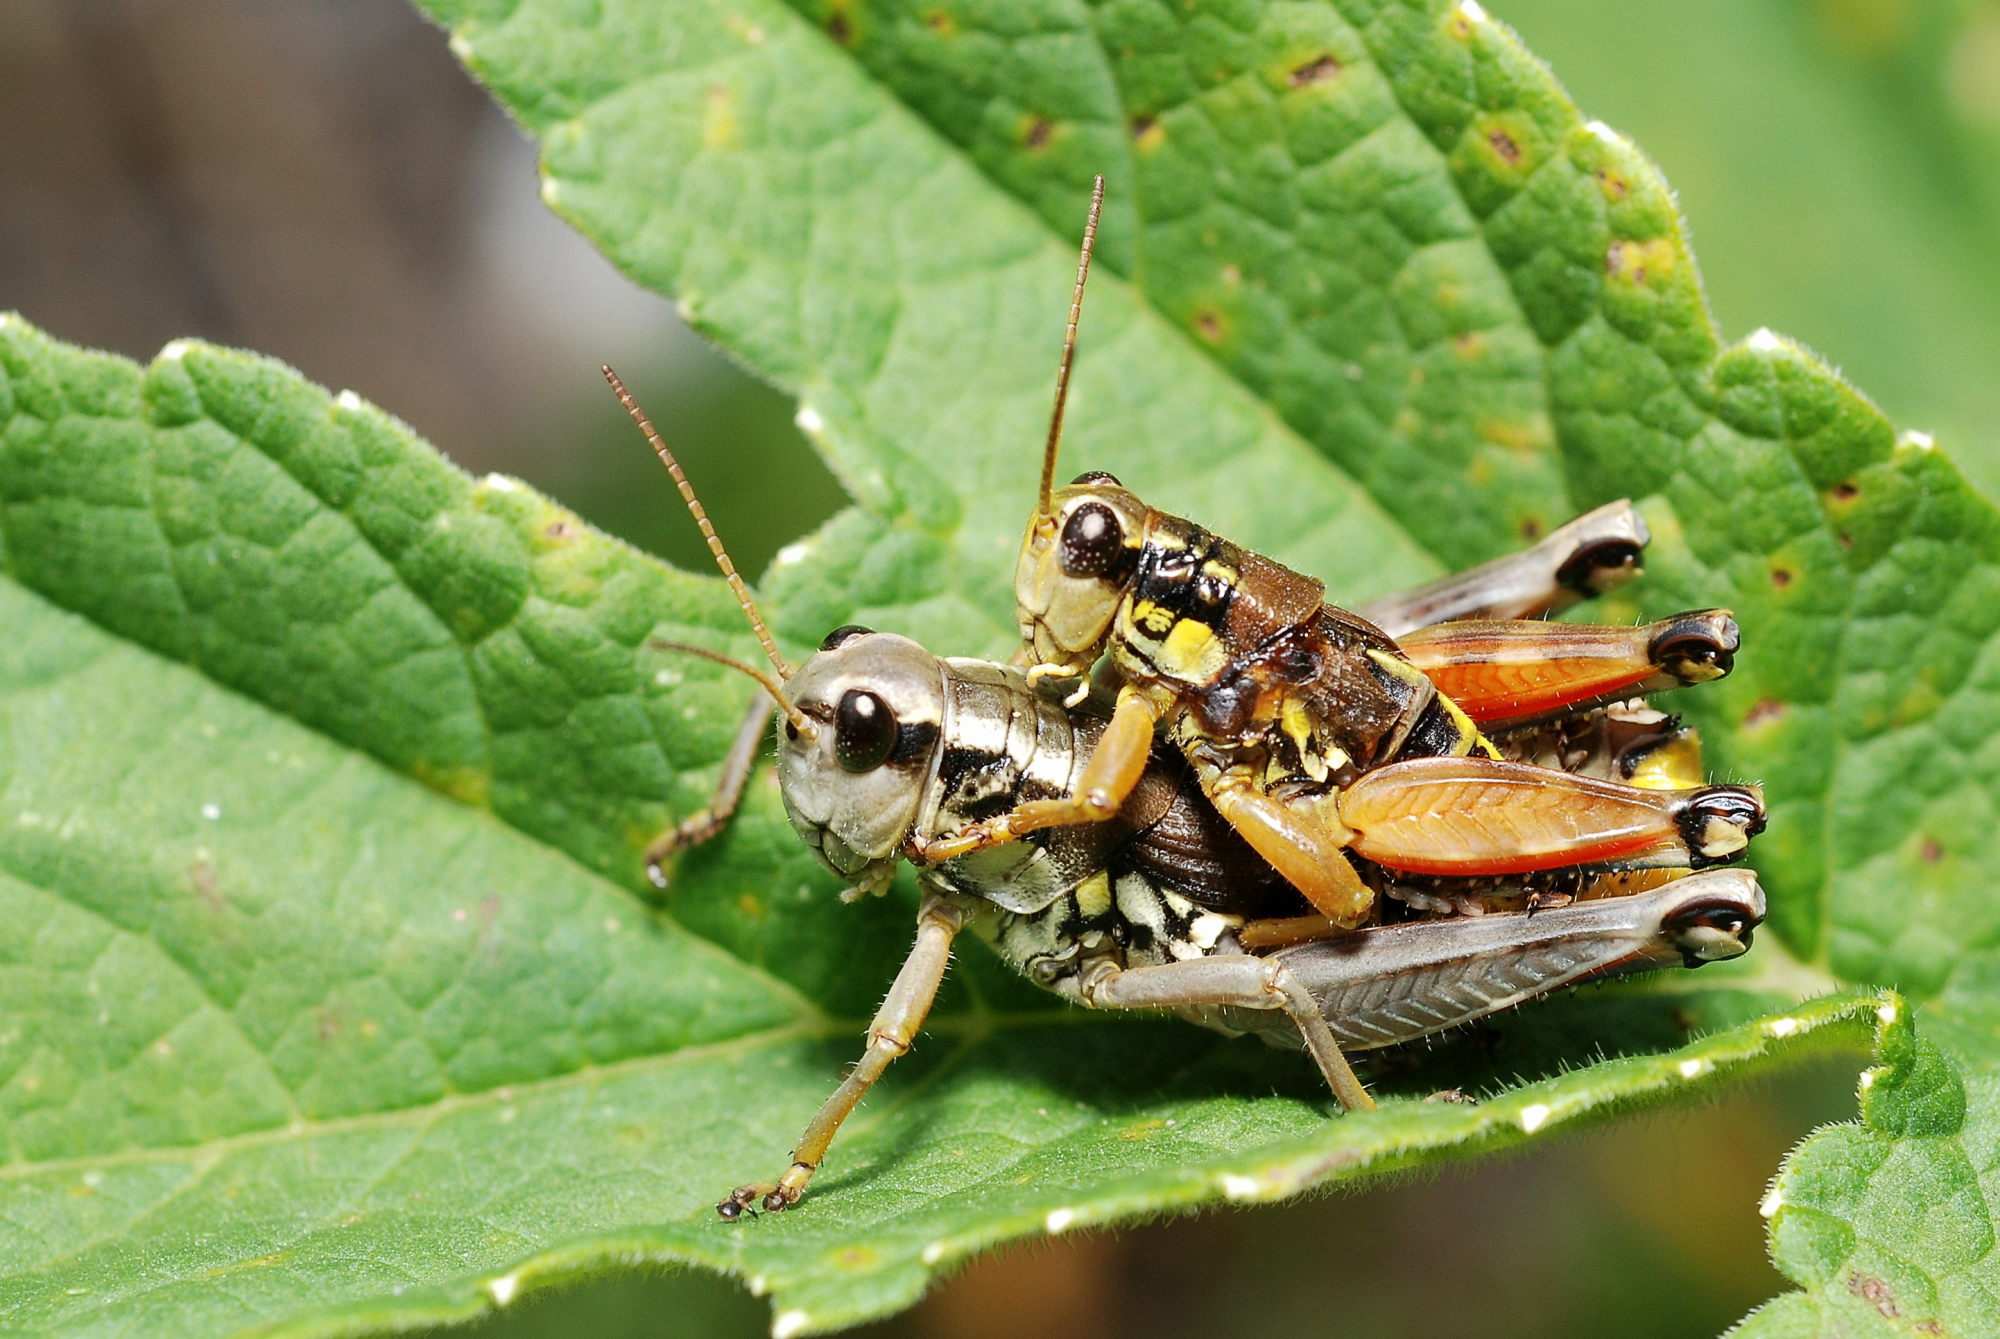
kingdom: Animalia
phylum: Arthropoda
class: Insecta
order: Orthoptera
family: Acrididae
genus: Podisma
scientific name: Podisma pedestris
